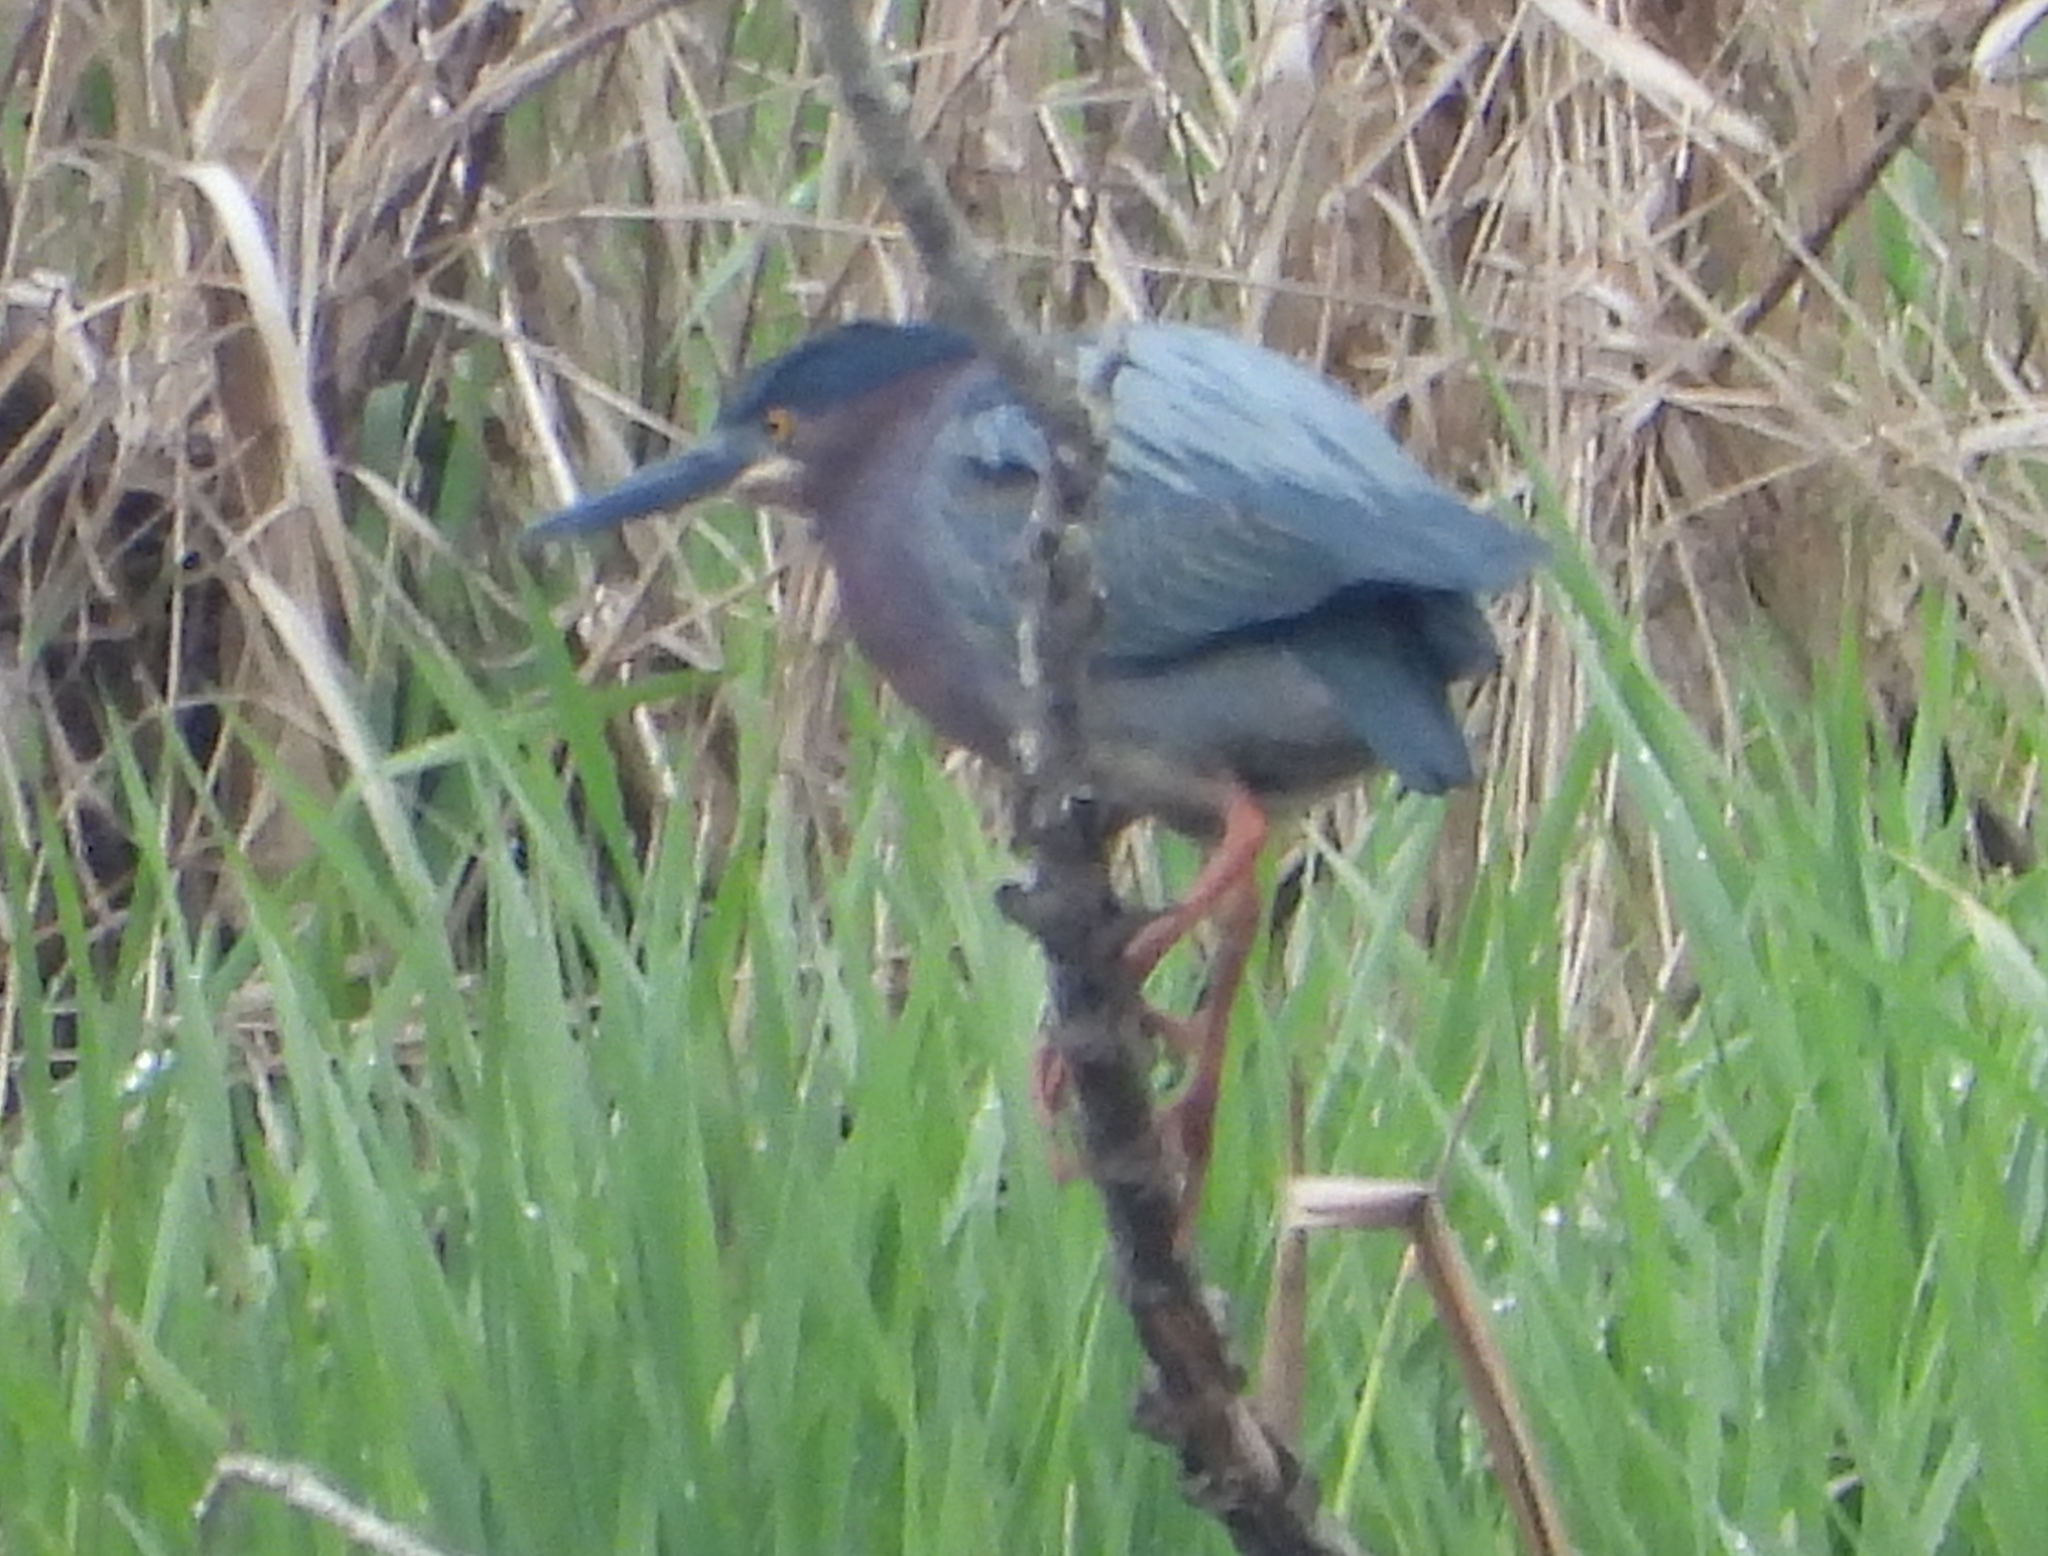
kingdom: Animalia
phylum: Chordata
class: Aves
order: Pelecaniformes
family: Ardeidae
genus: Butorides
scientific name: Butorides virescens
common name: Green heron
